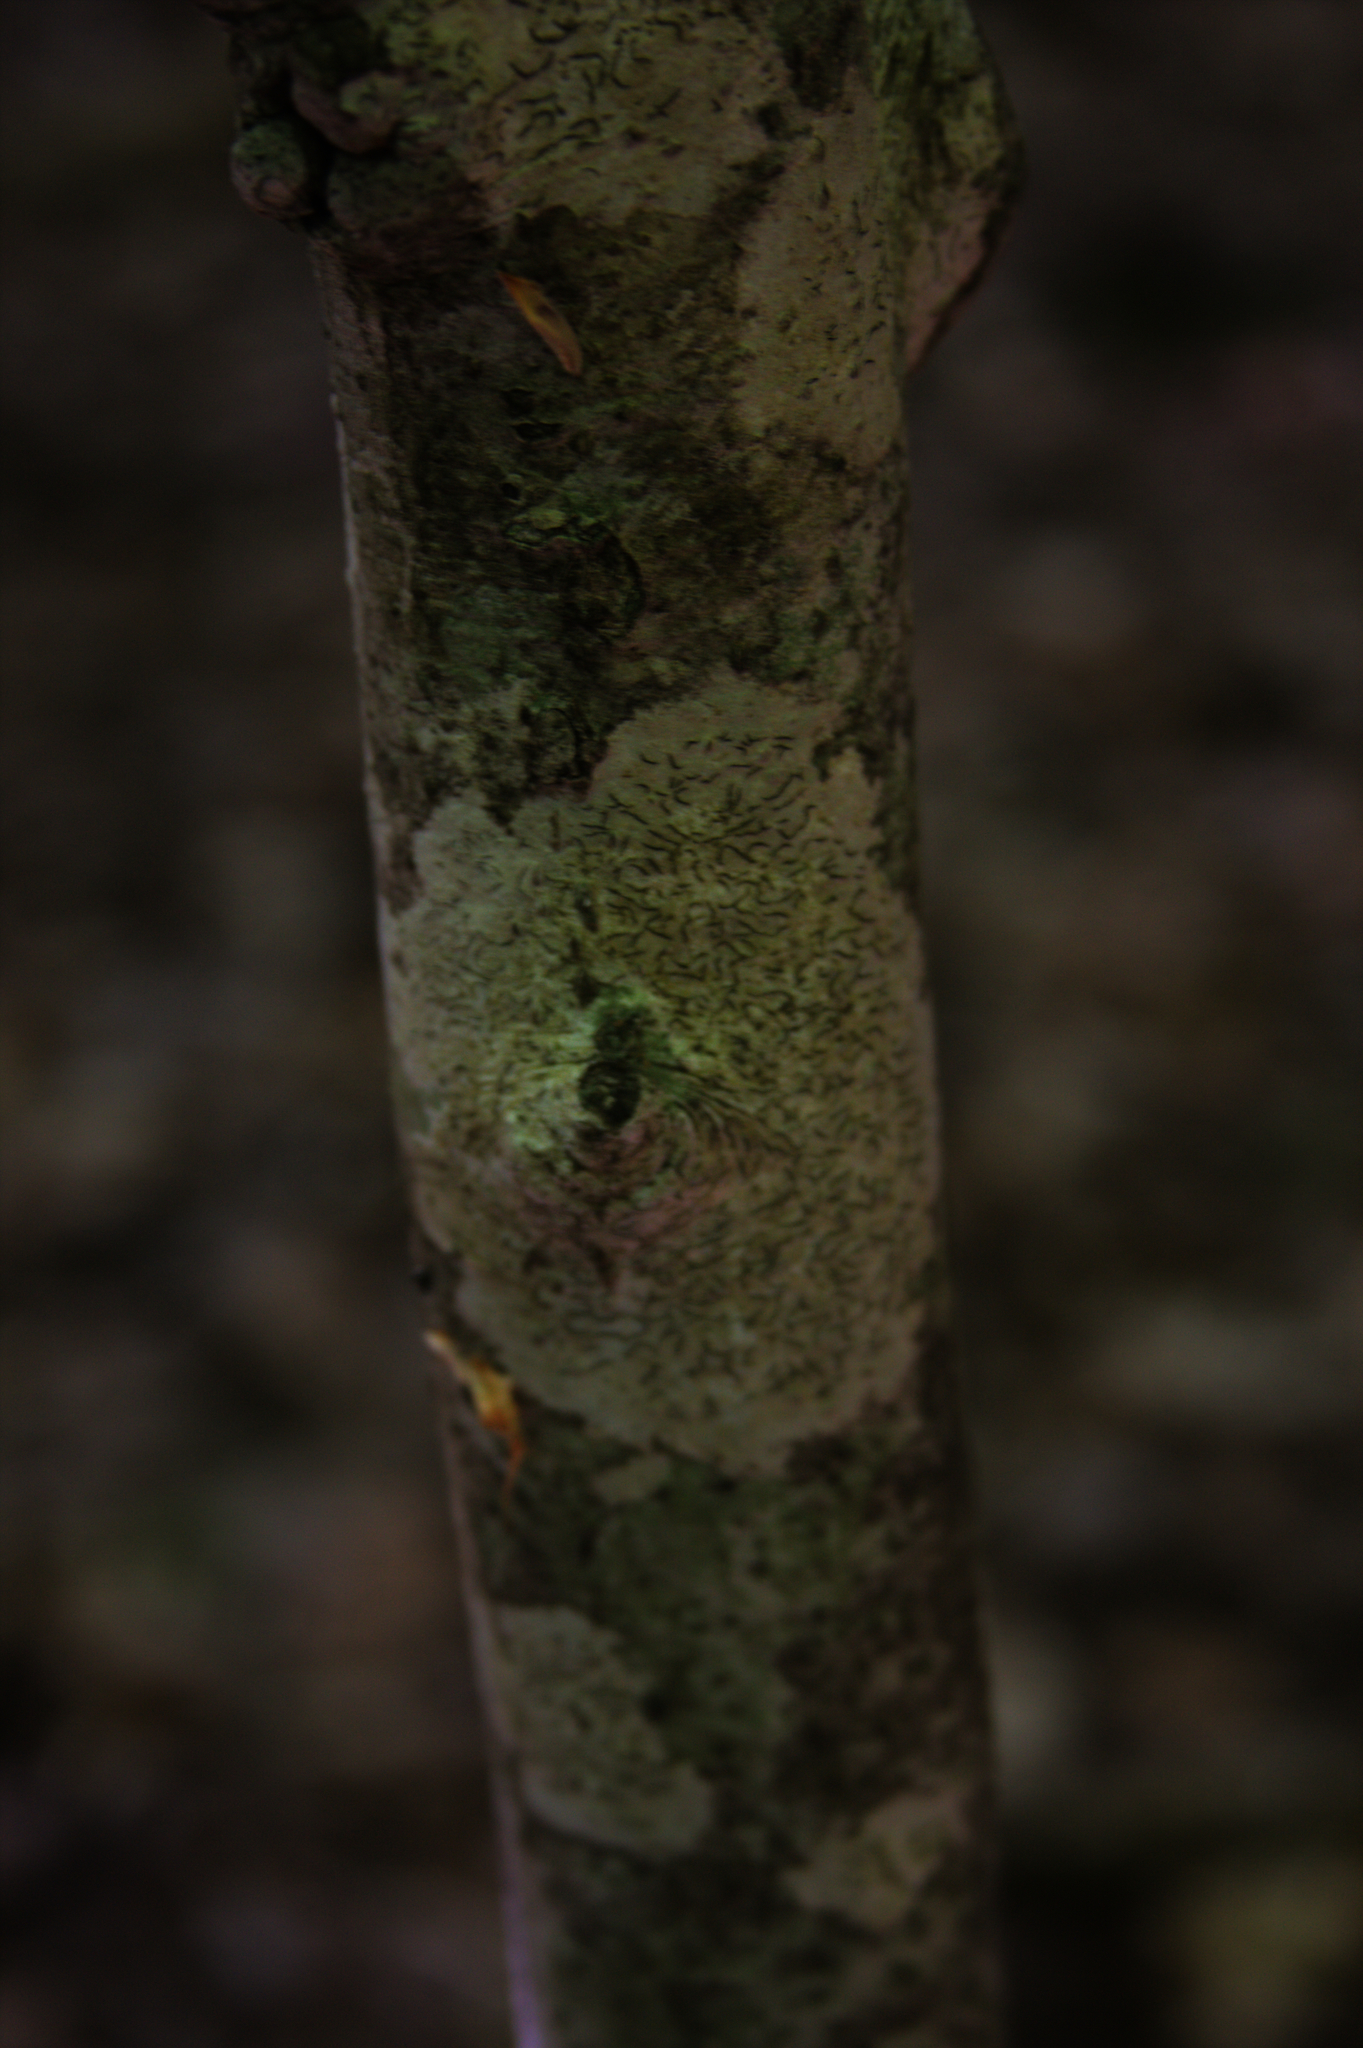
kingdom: Fungi
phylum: Ascomycota
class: Lecanoromycetes
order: Ostropales
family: Graphidaceae
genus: Graphis
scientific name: Graphis scripta
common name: Script lichen
